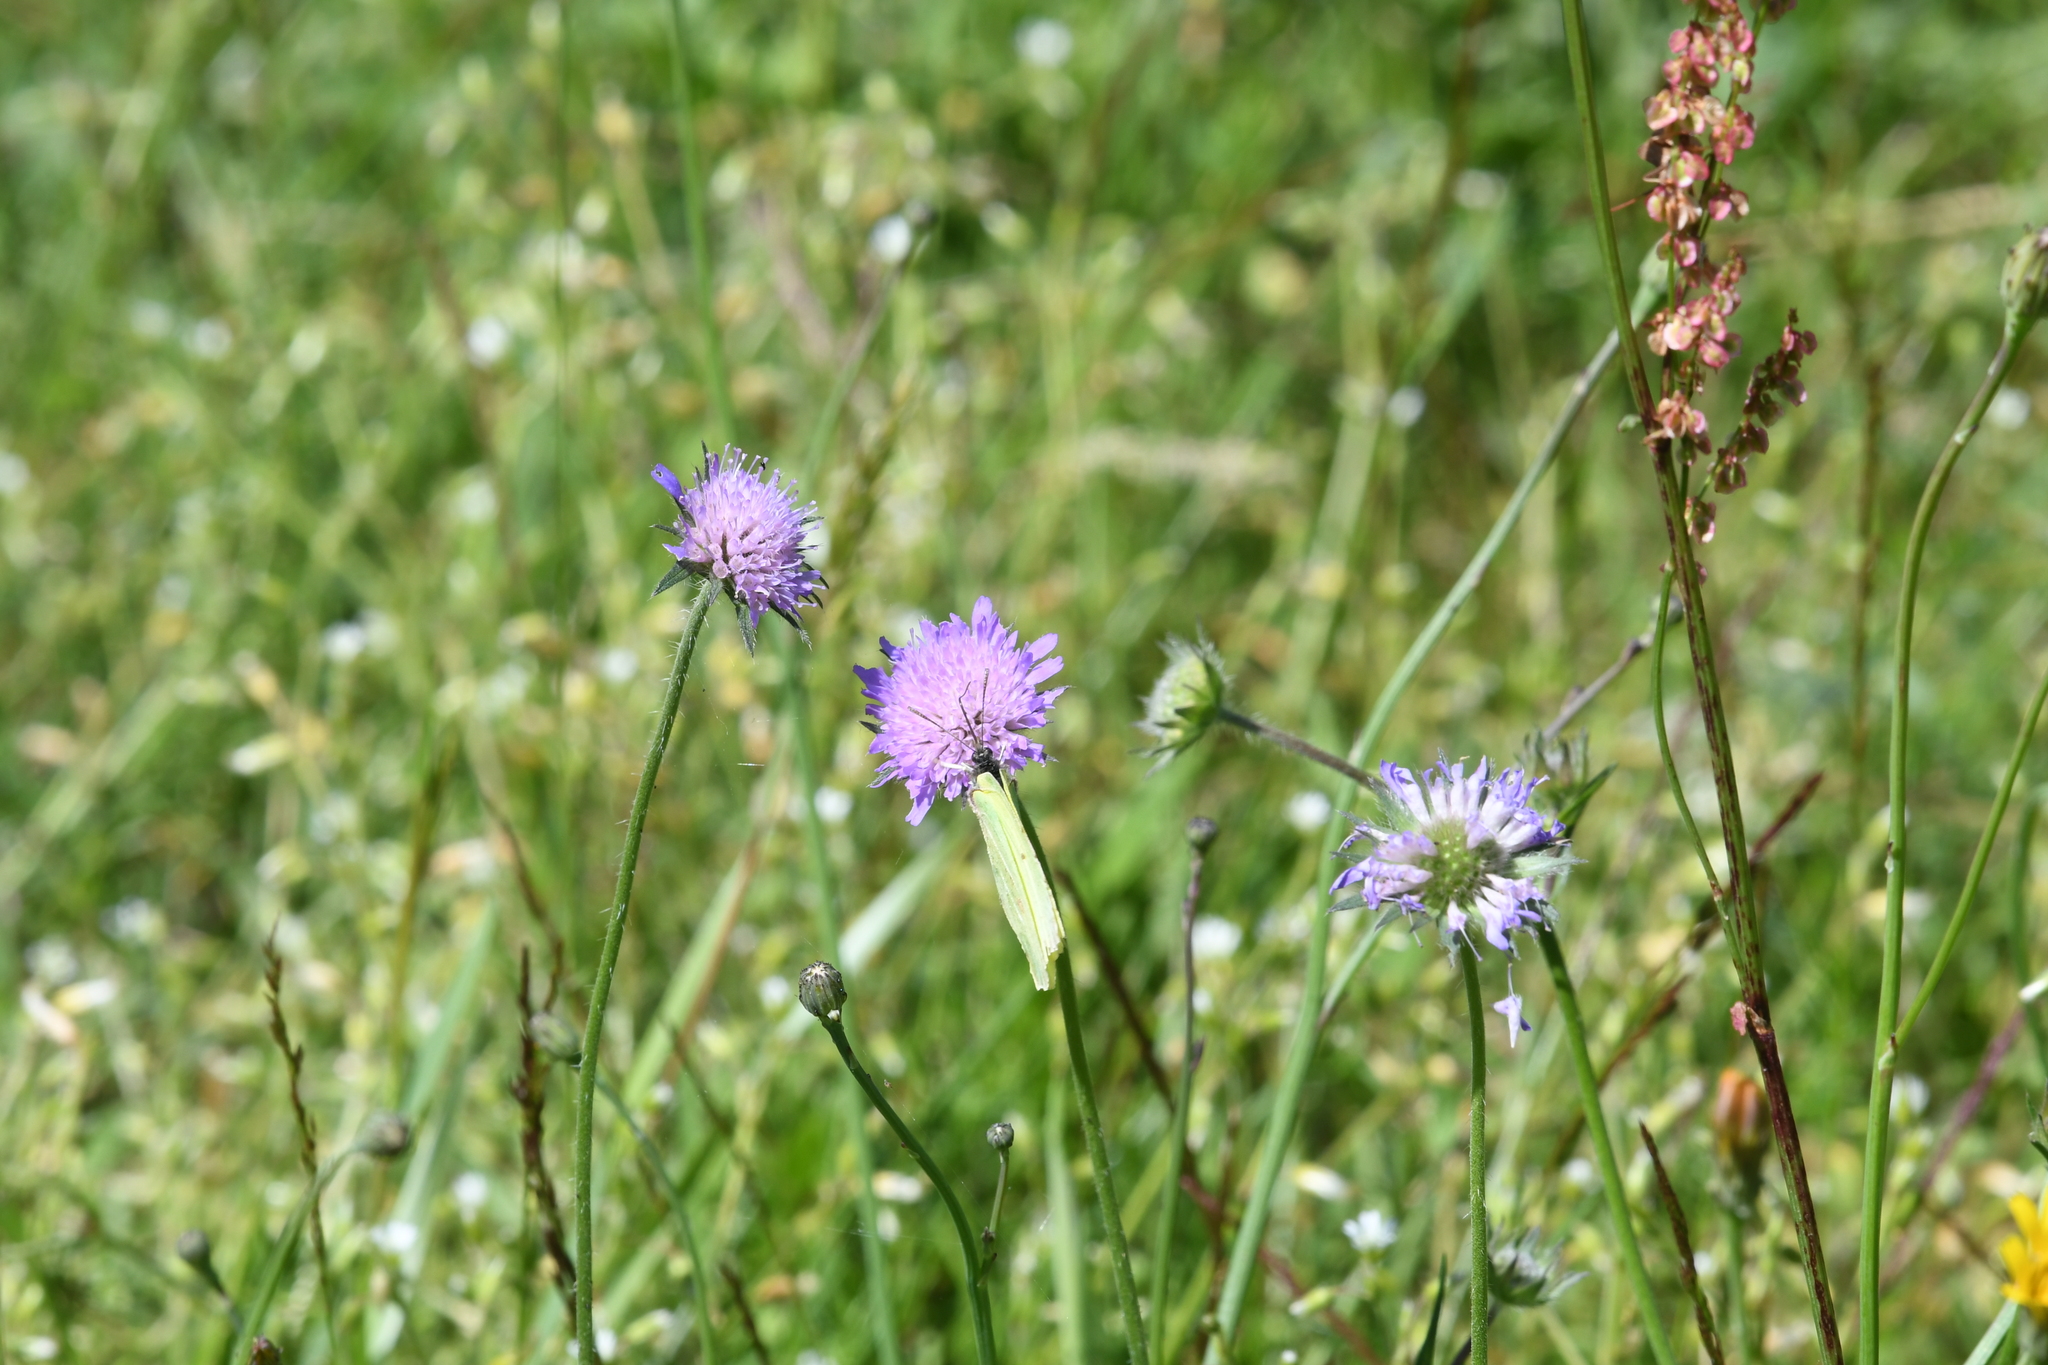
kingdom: Animalia
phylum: Arthropoda
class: Insecta
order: Lepidoptera
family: Pieridae
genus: Gonepteryx
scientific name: Gonepteryx rhamni
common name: Brimstone
